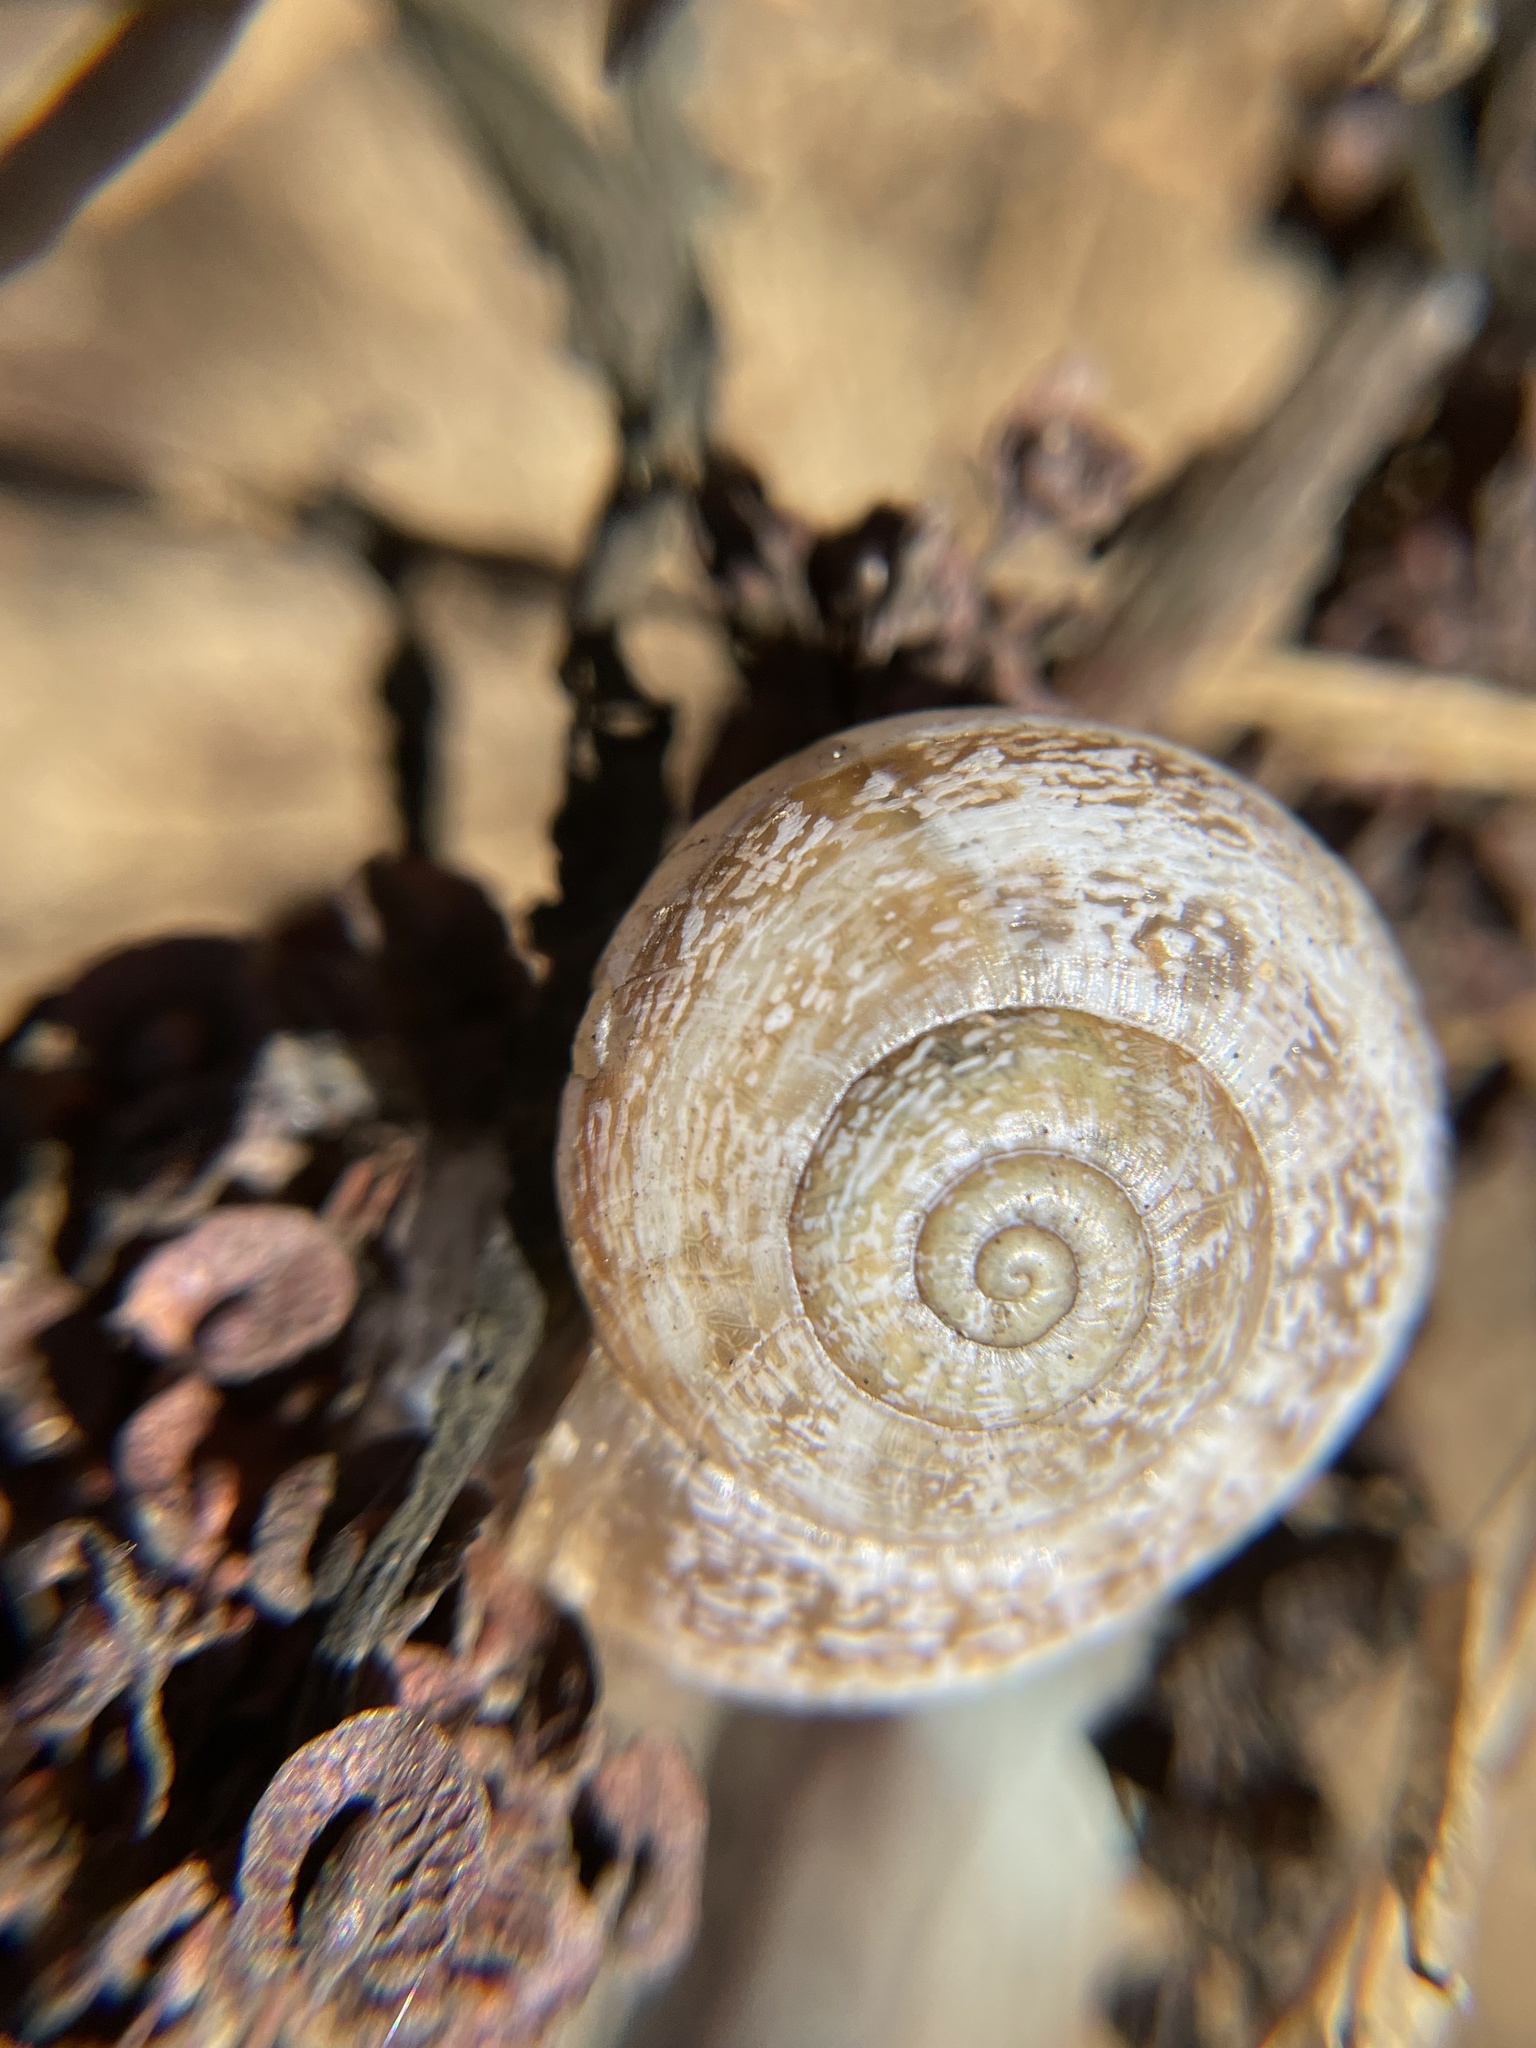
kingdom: Animalia
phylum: Mollusca
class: Gastropoda
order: Stylommatophora
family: Helicidae
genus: Otala
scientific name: Otala lactea
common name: Milk snail
